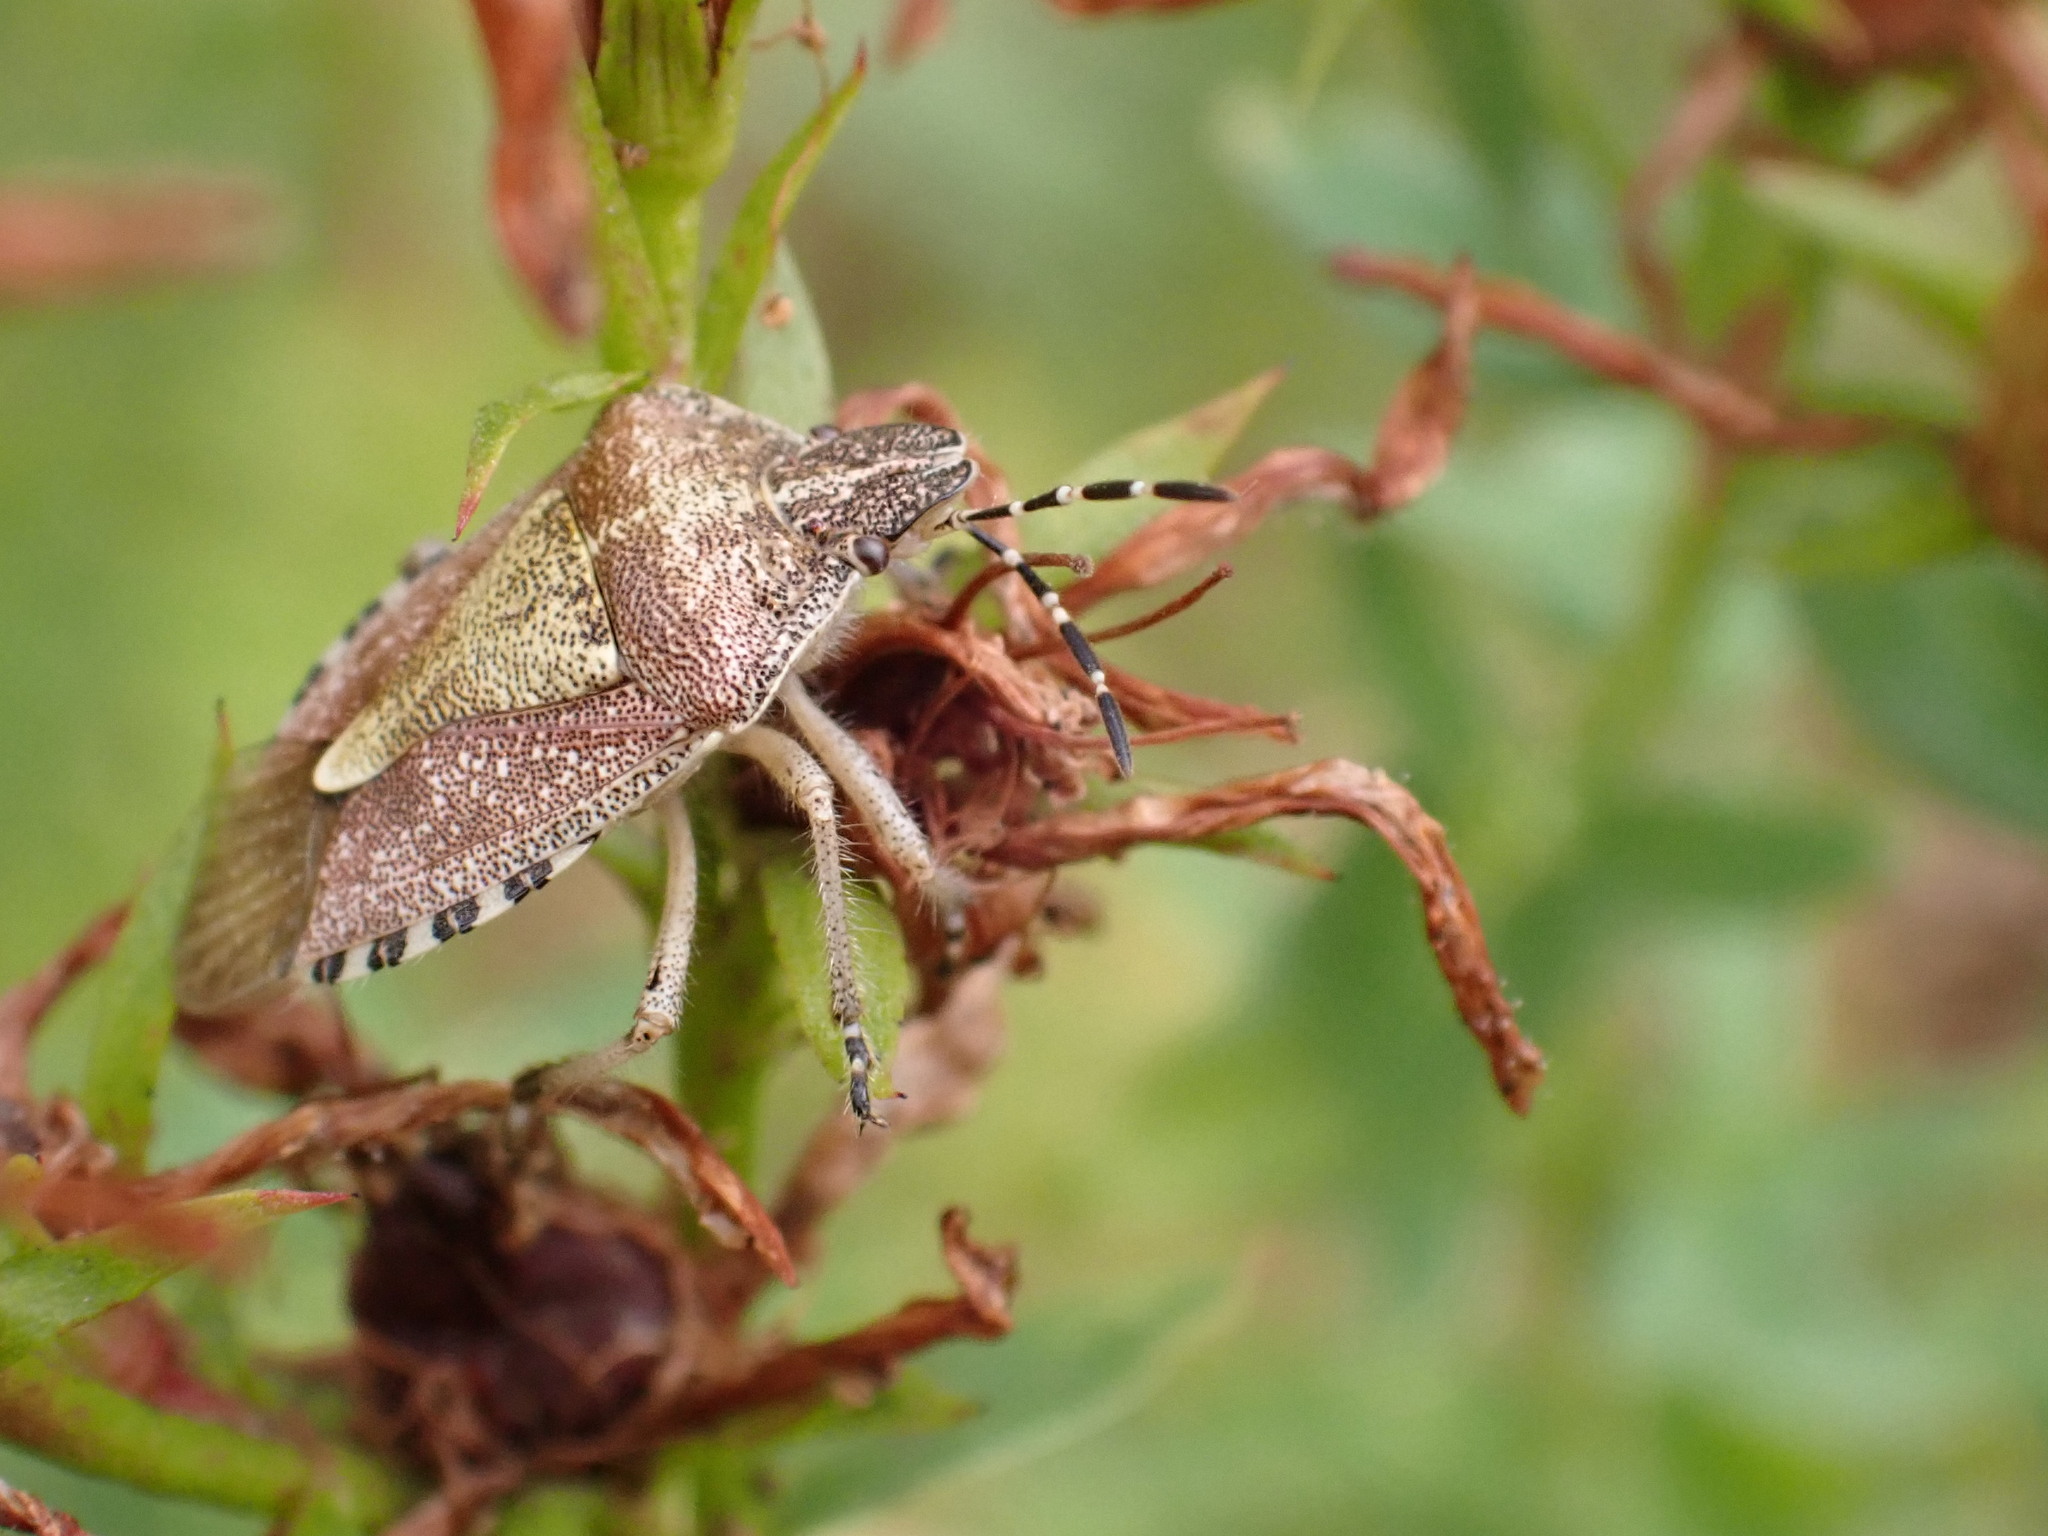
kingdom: Animalia
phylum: Arthropoda
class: Insecta
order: Hemiptera
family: Pentatomidae
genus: Dolycoris
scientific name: Dolycoris baccarum
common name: Sloe bug
